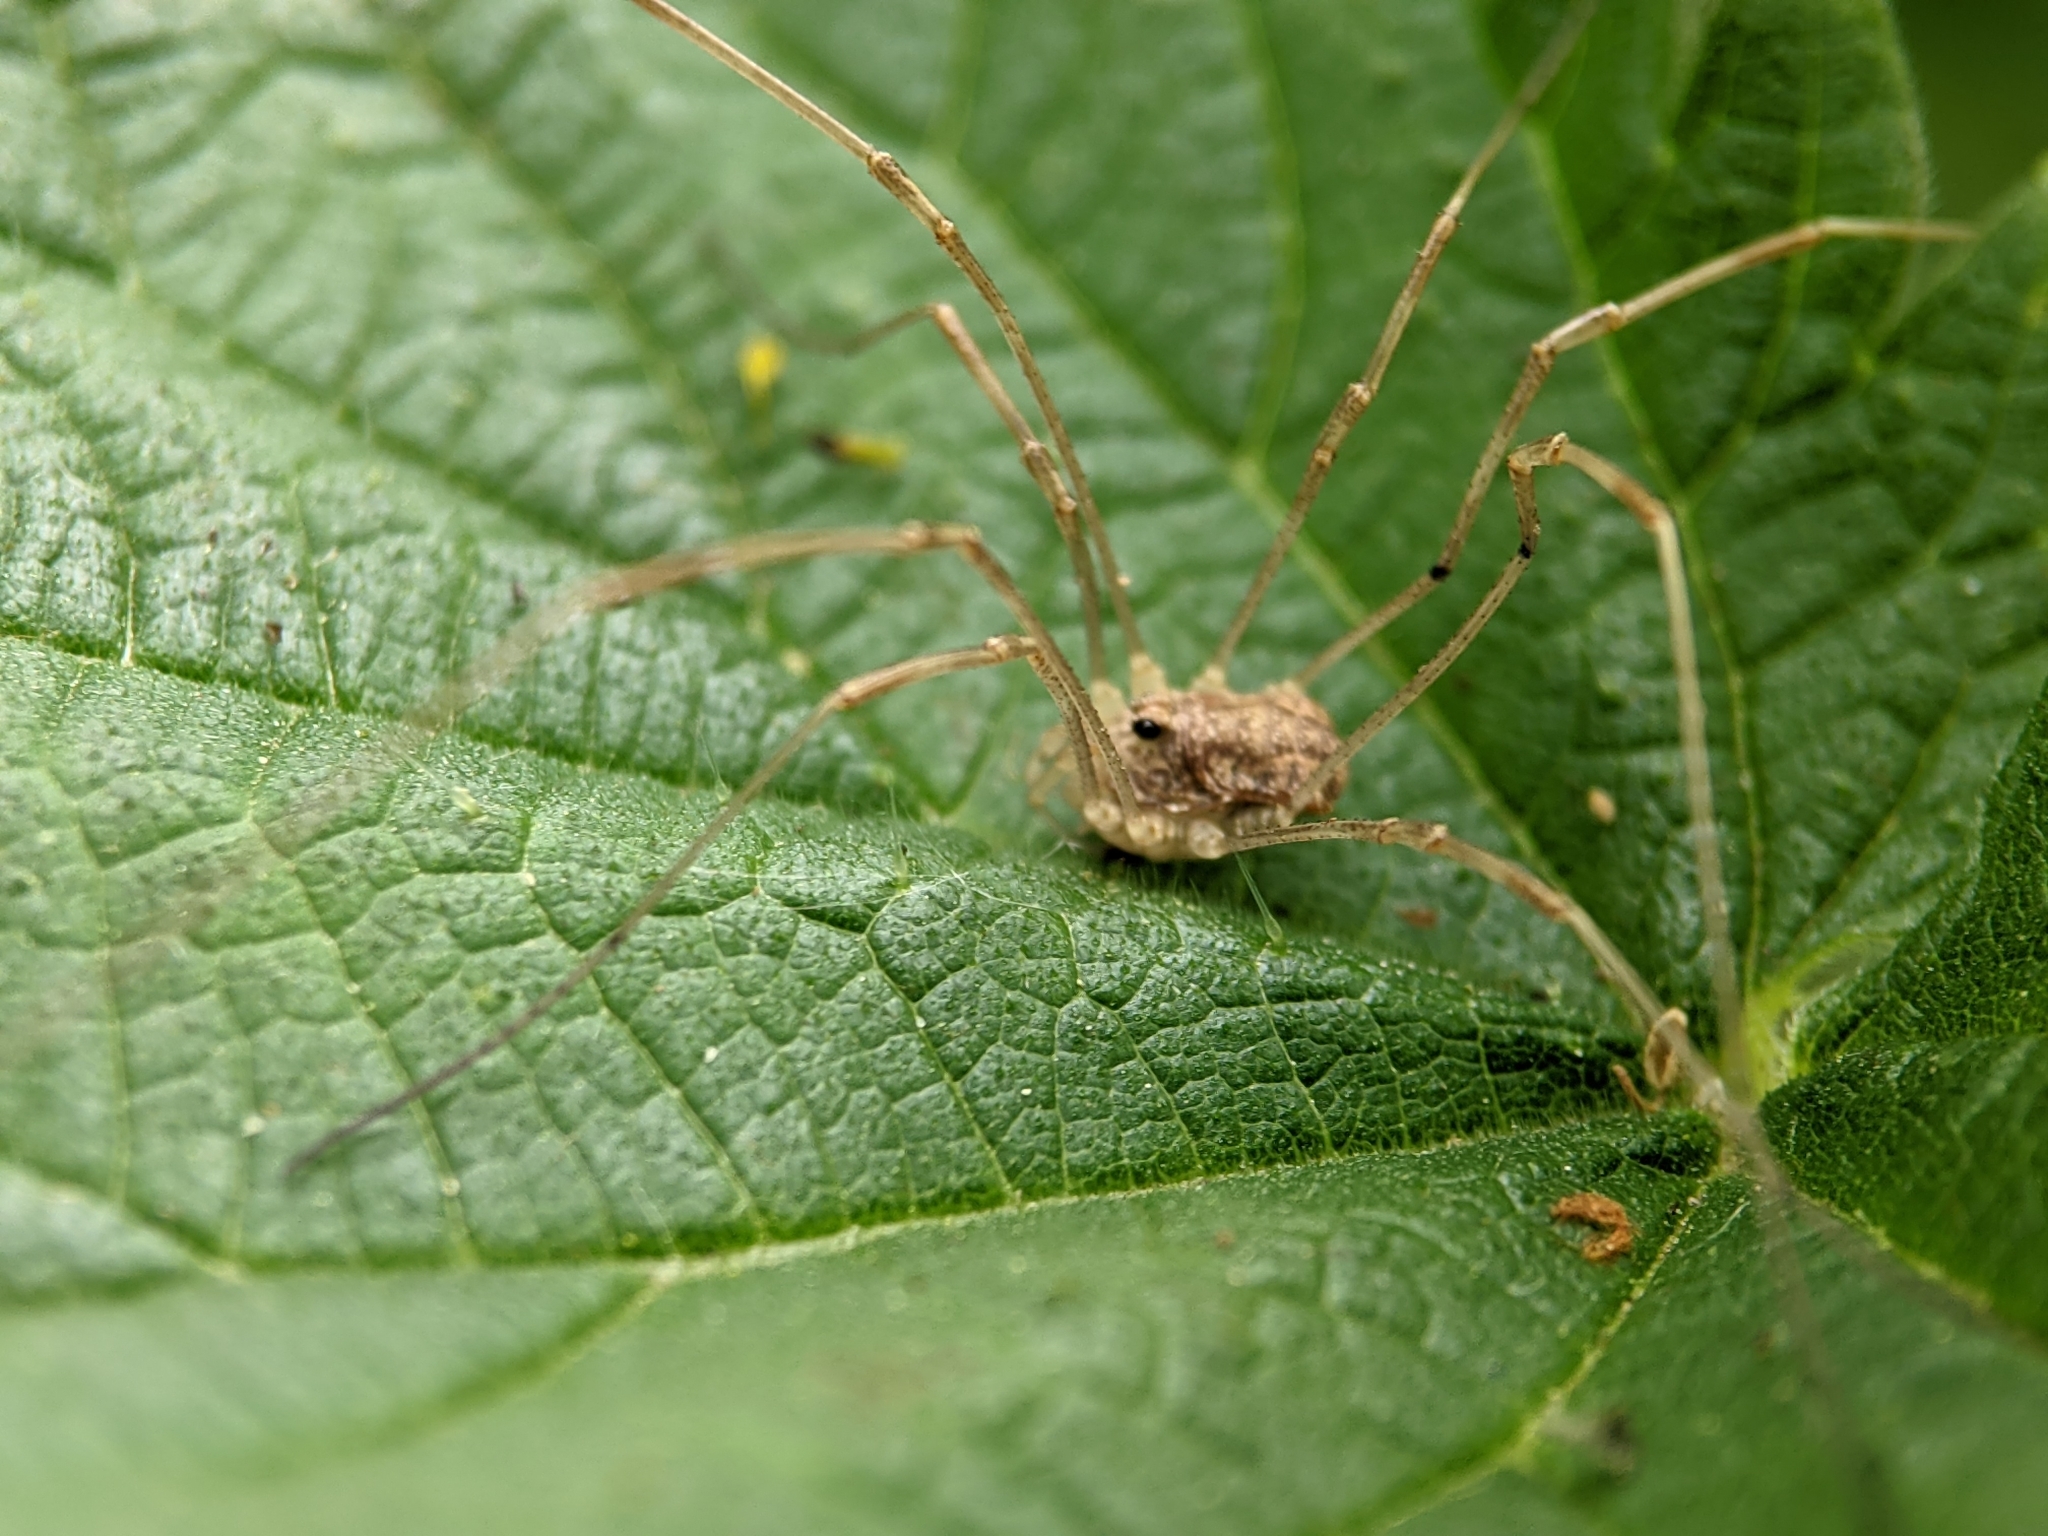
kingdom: Animalia
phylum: Arthropoda
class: Arachnida
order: Opiliones
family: Phalangiidae
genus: Rilaena
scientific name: Rilaena triangularis
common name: Spring harvestman
